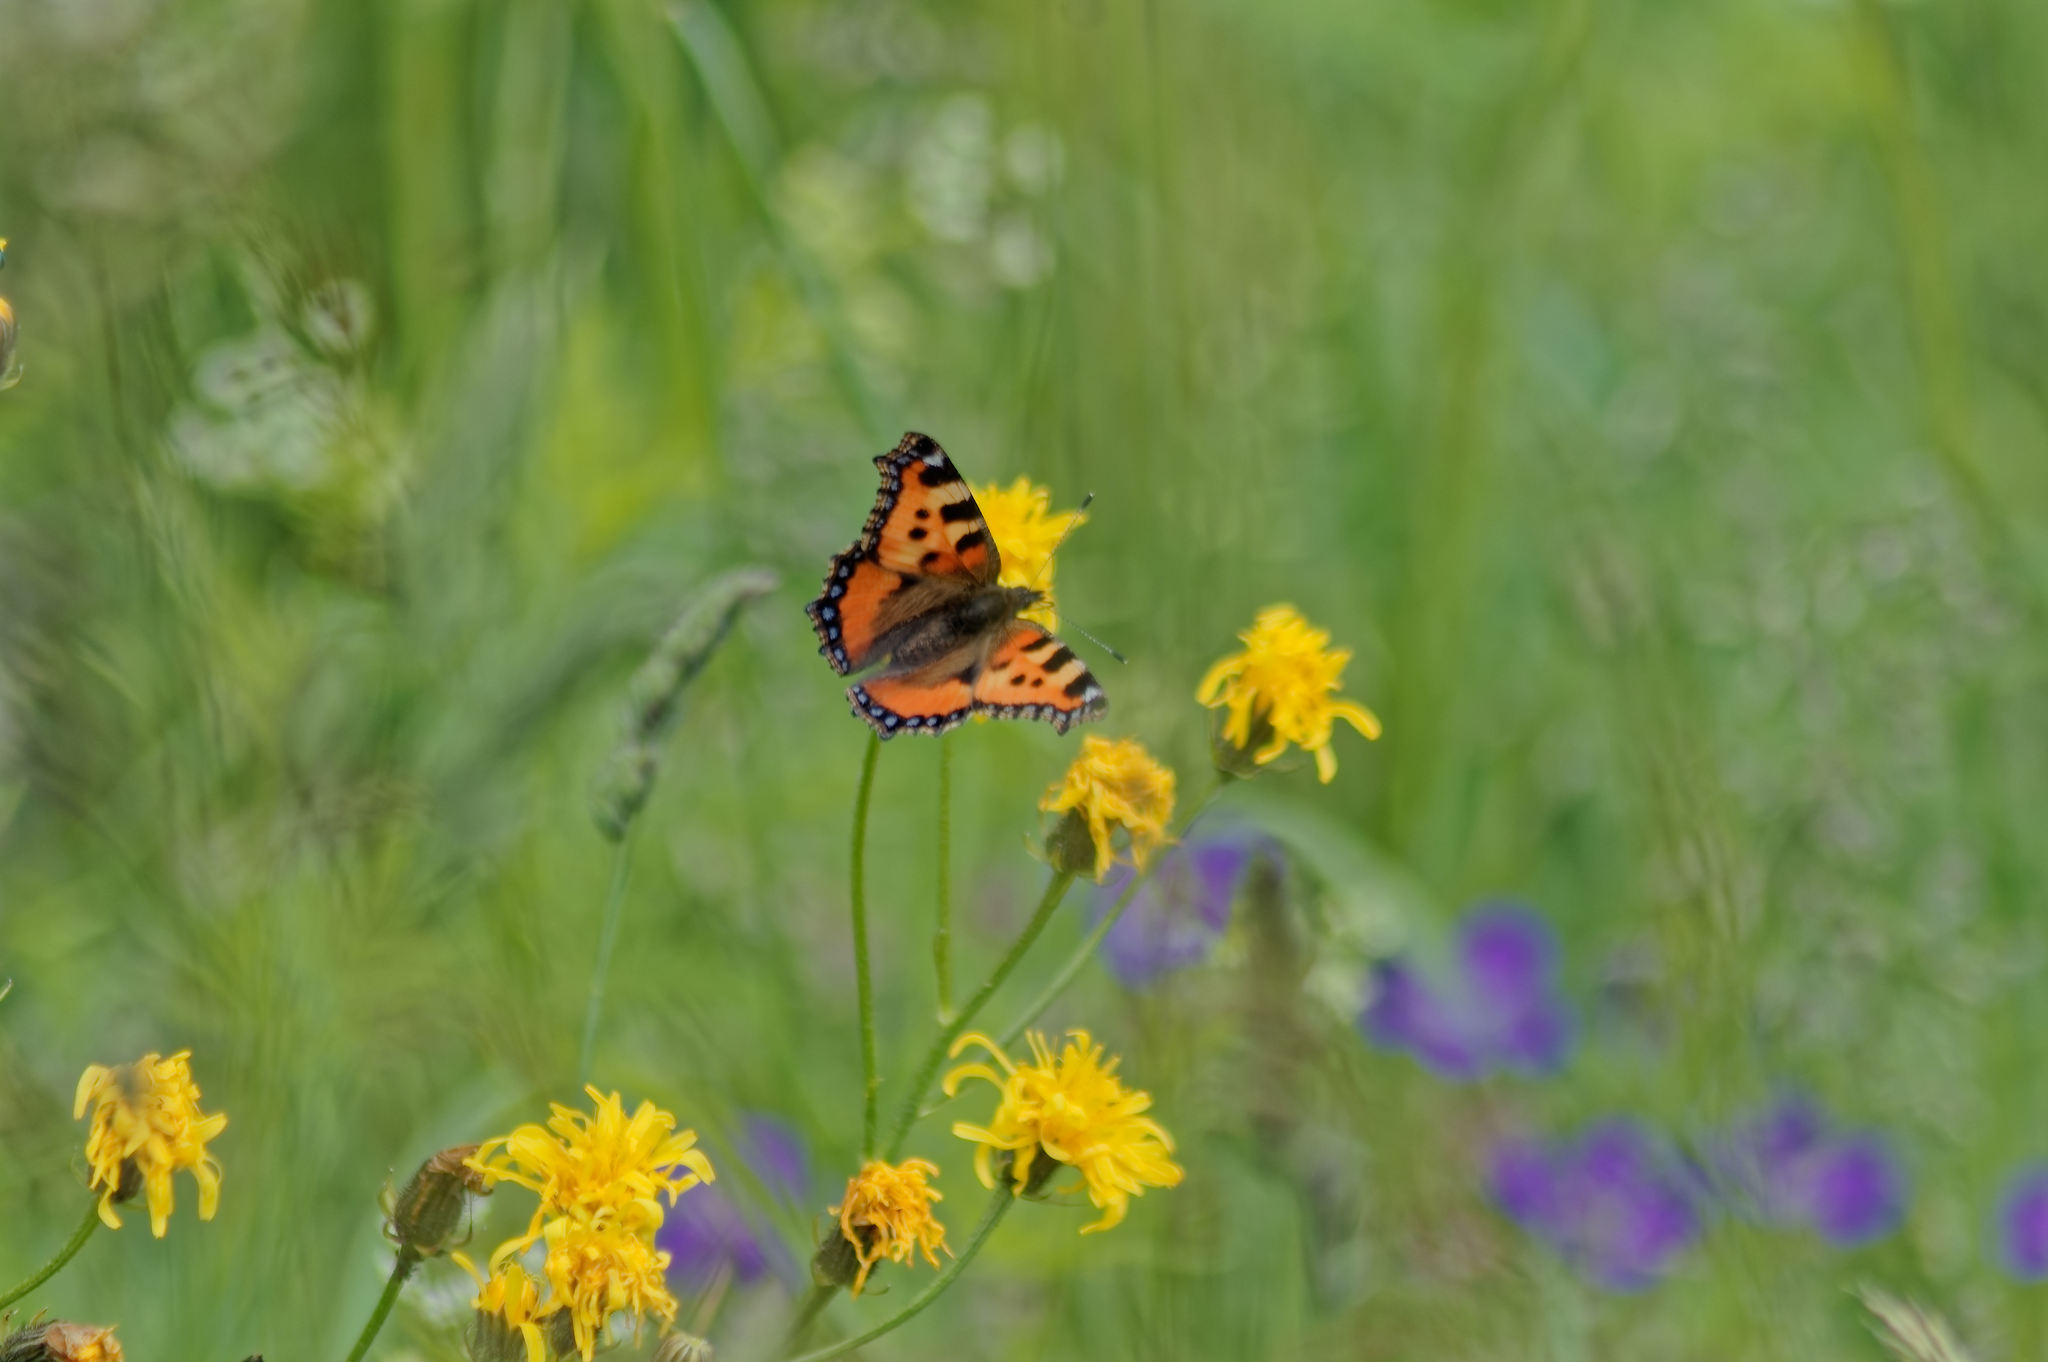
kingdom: Animalia
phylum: Arthropoda
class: Insecta
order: Lepidoptera
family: Nymphalidae
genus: Aglais
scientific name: Aglais urticae
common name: Small tortoiseshell
